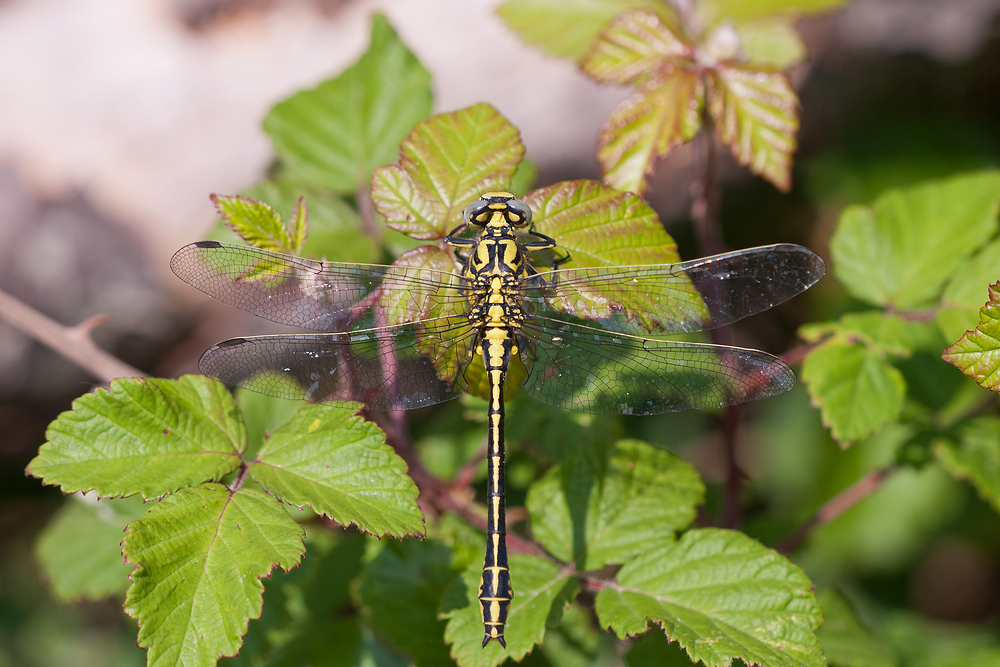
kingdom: Animalia
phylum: Arthropoda
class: Insecta
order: Odonata
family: Gomphidae
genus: Gomphus
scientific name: Gomphus simillimus
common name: Yellow clubtail
